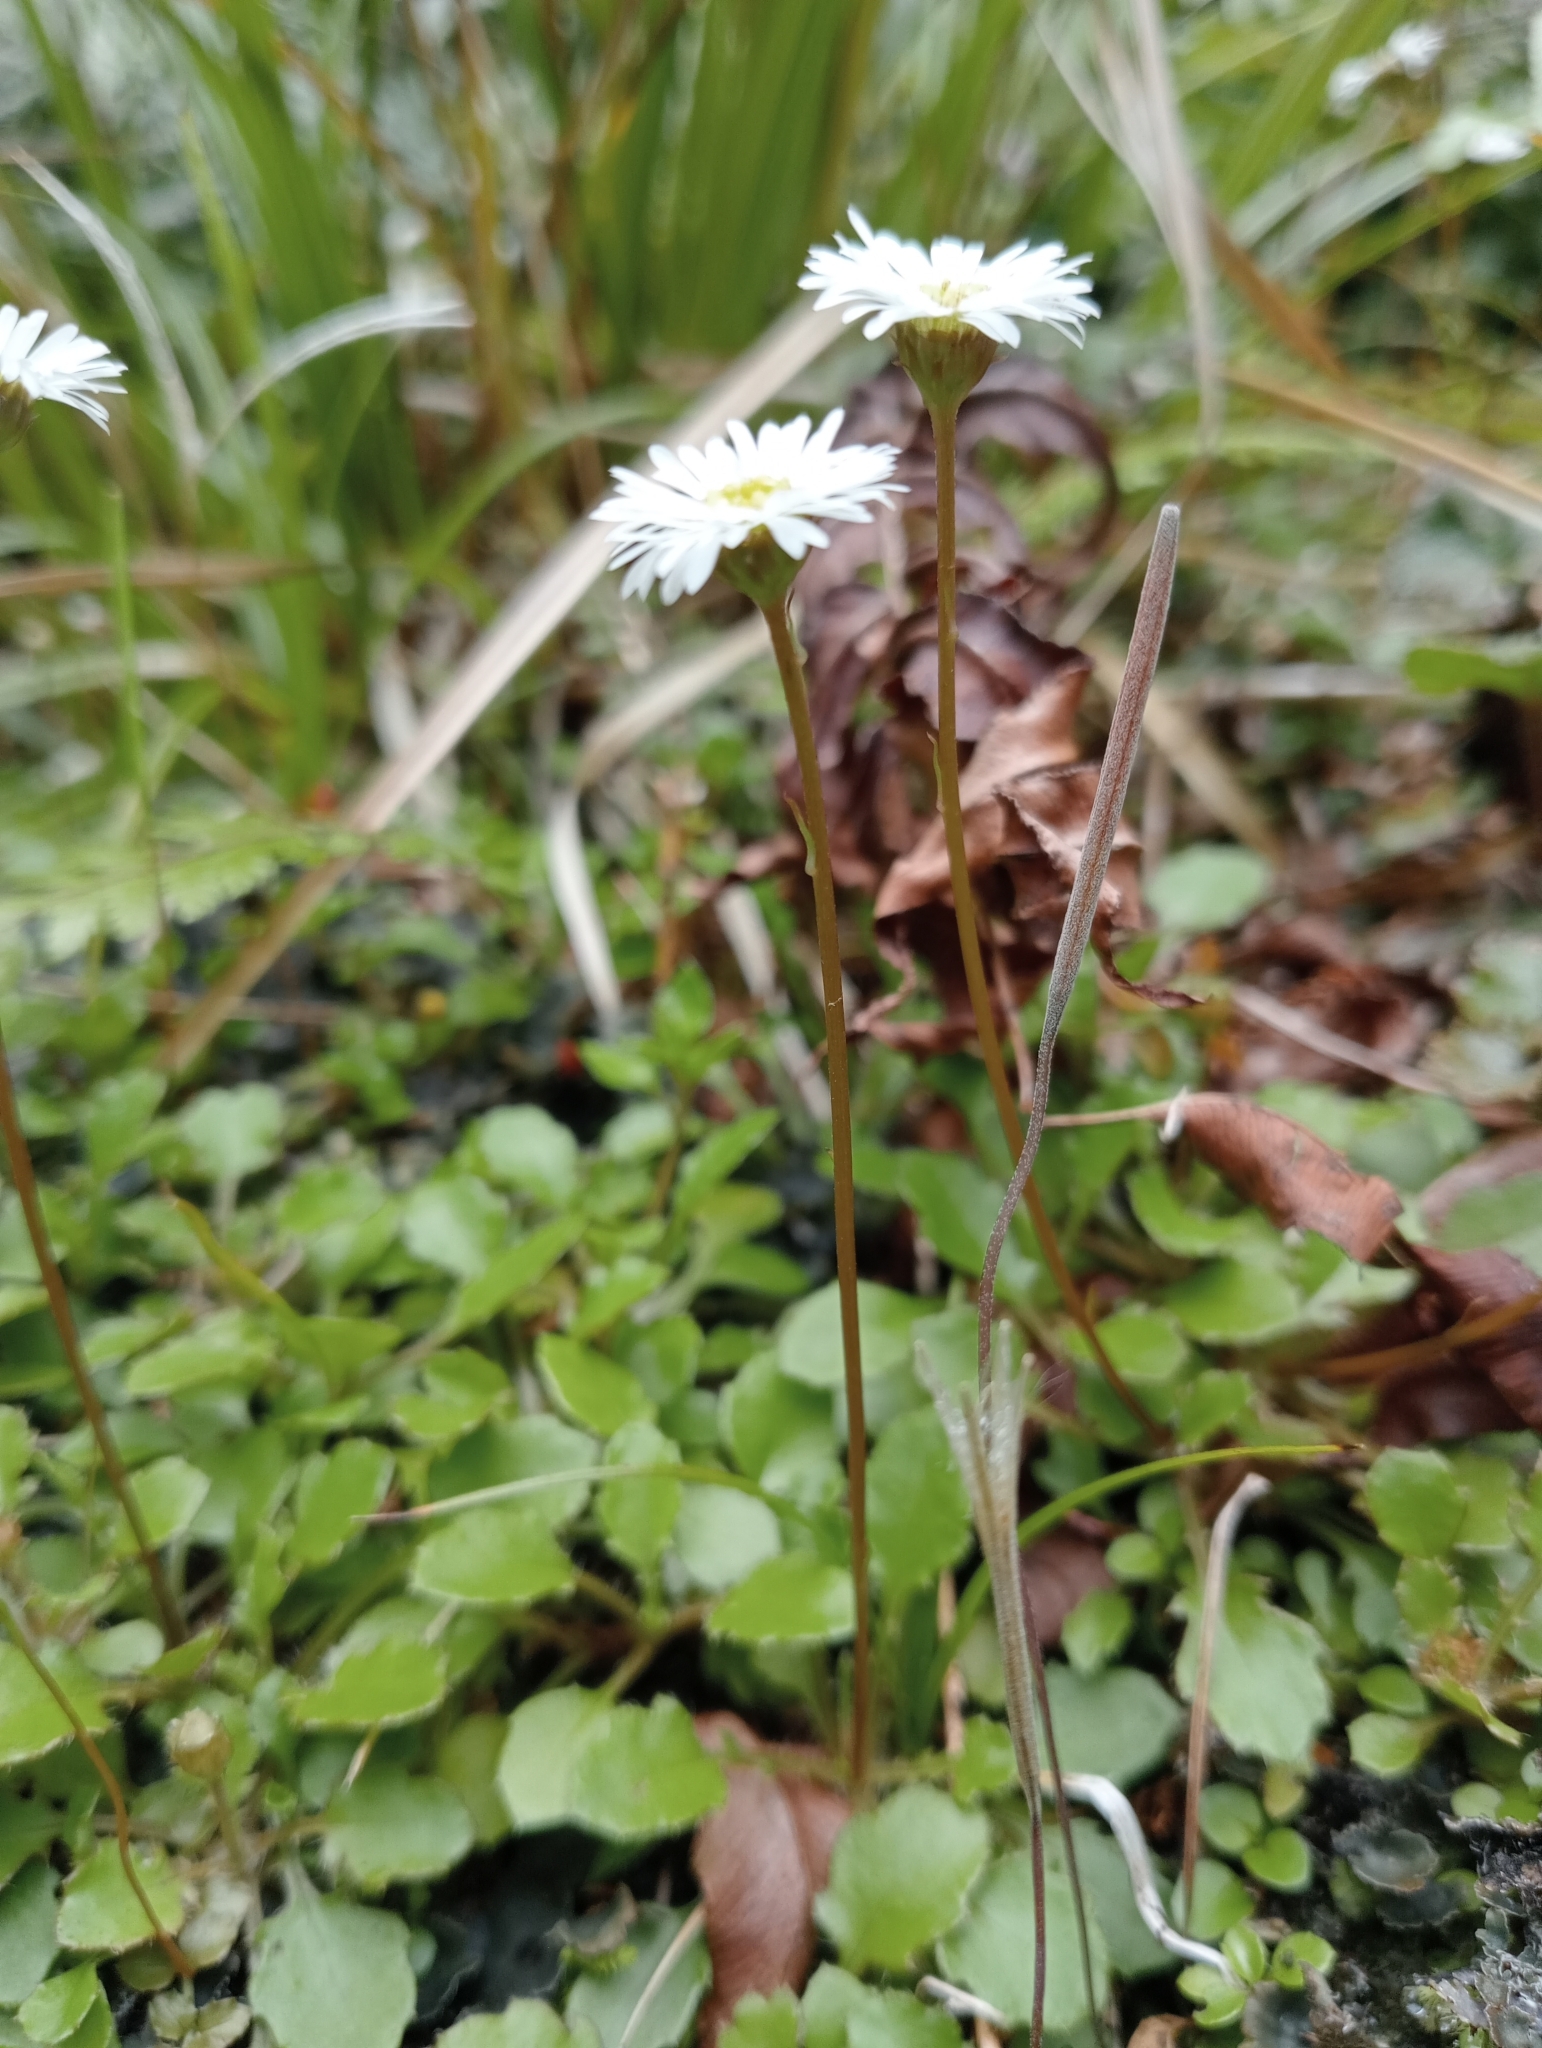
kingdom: Plantae
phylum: Tracheophyta
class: Magnoliopsida
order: Asterales
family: Asteraceae
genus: Lagenophora
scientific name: Lagenophora pumila
